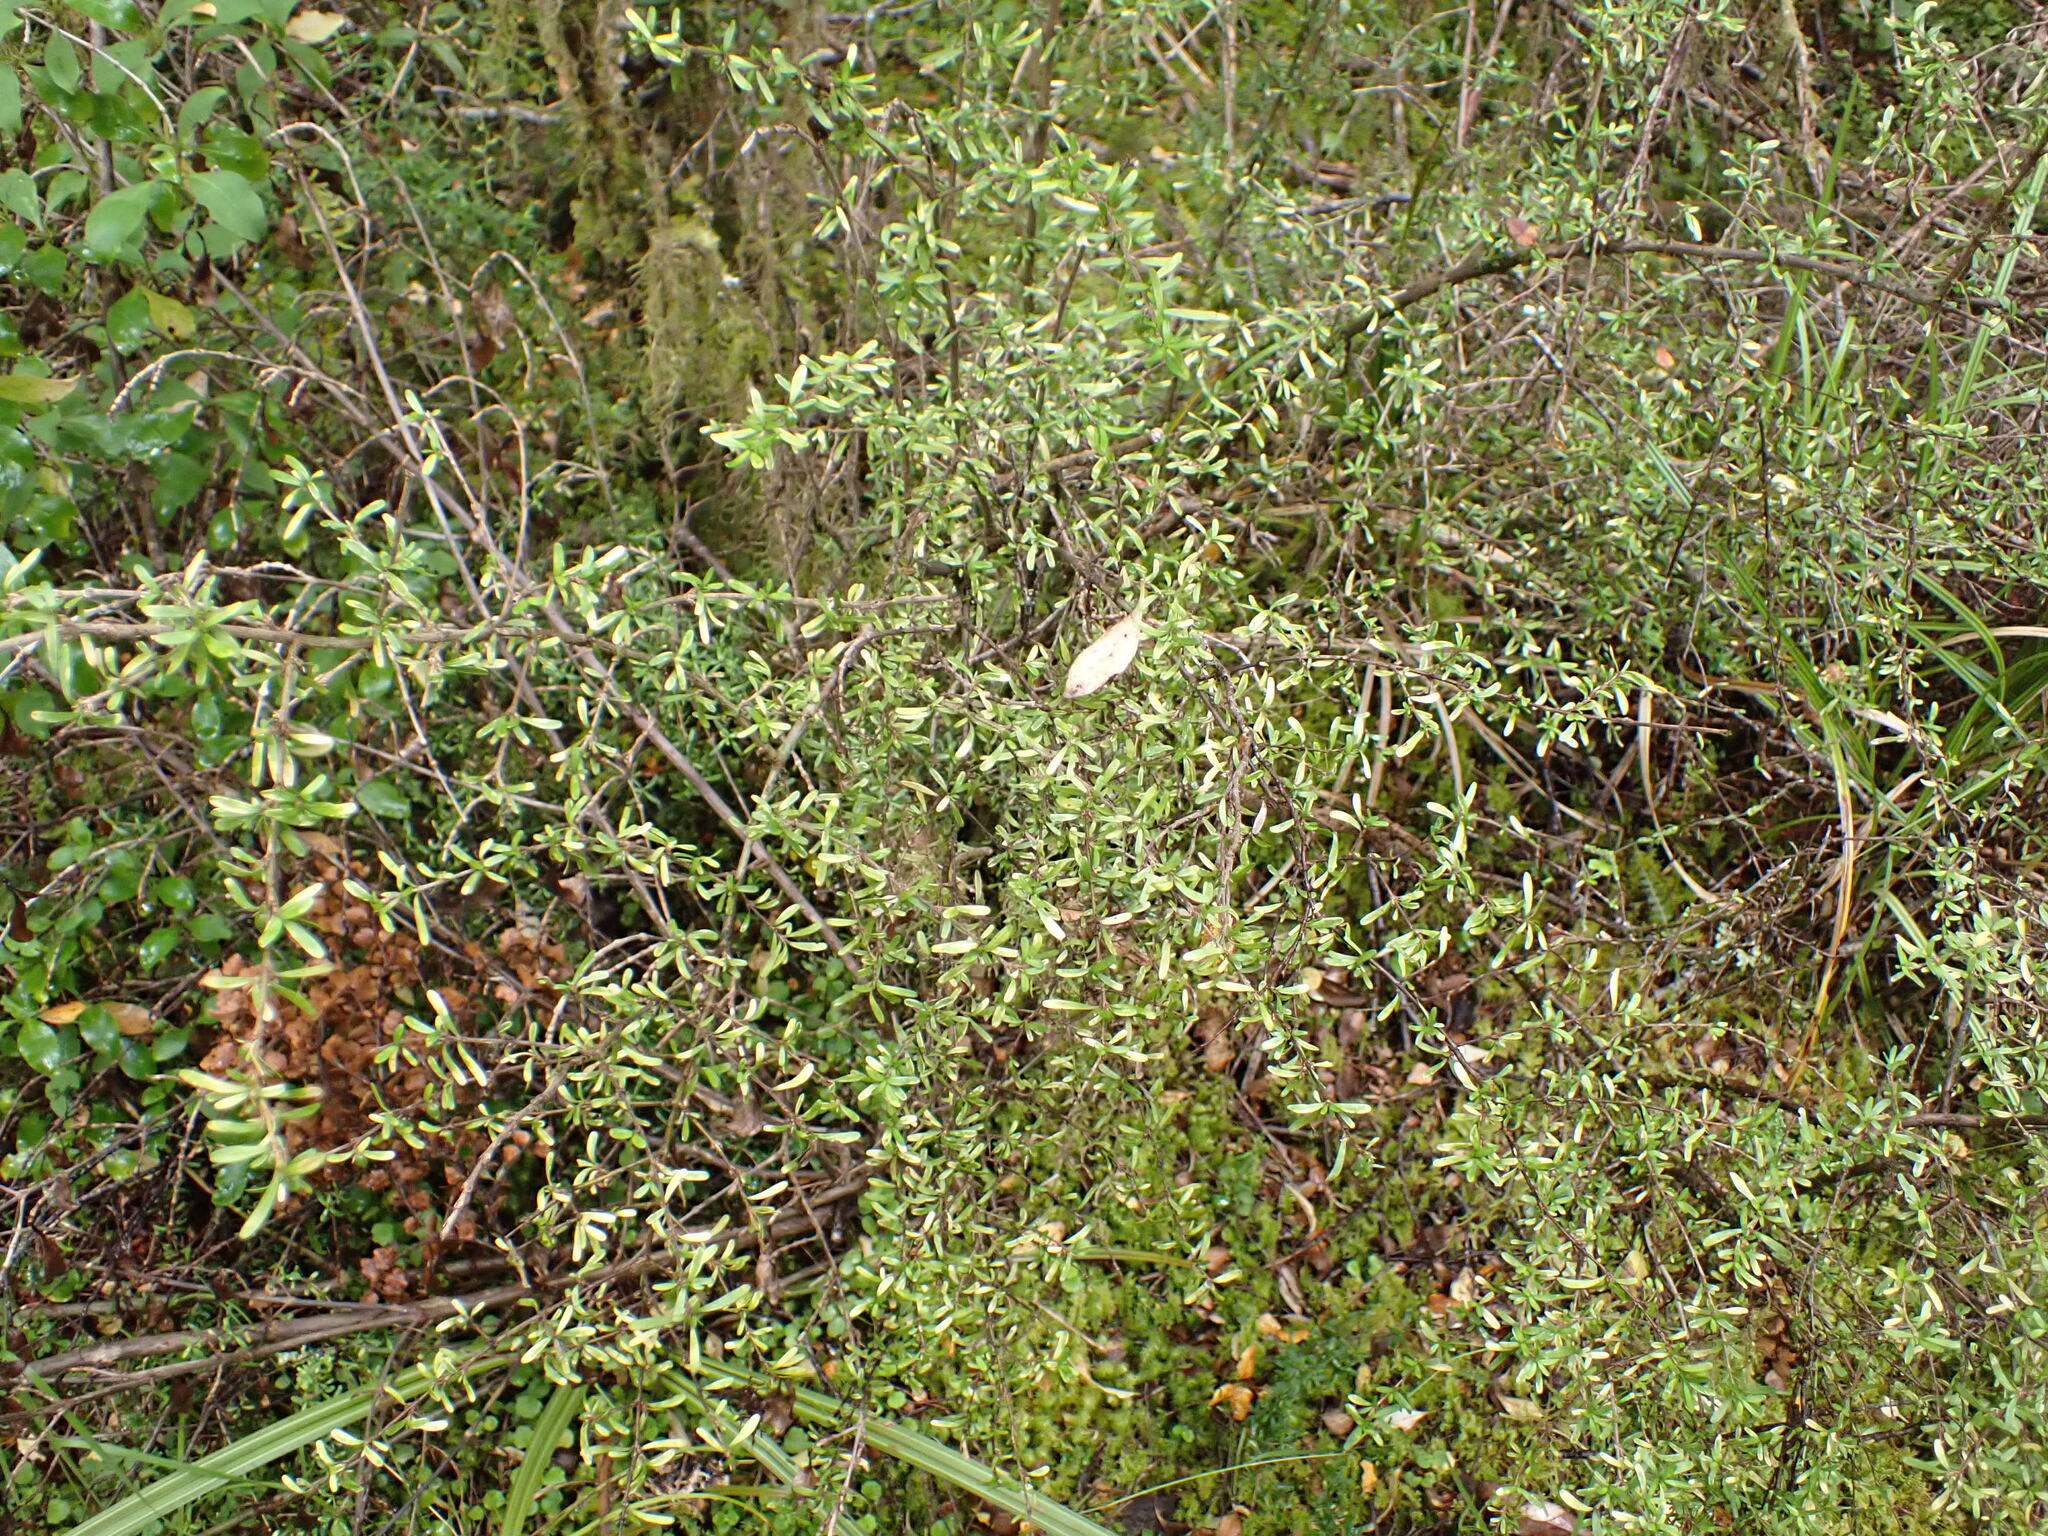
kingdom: Plantae
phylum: Tracheophyta
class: Magnoliopsida
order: Gentianales
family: Rubiaceae
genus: Coprosma
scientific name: Coprosma cuneata
